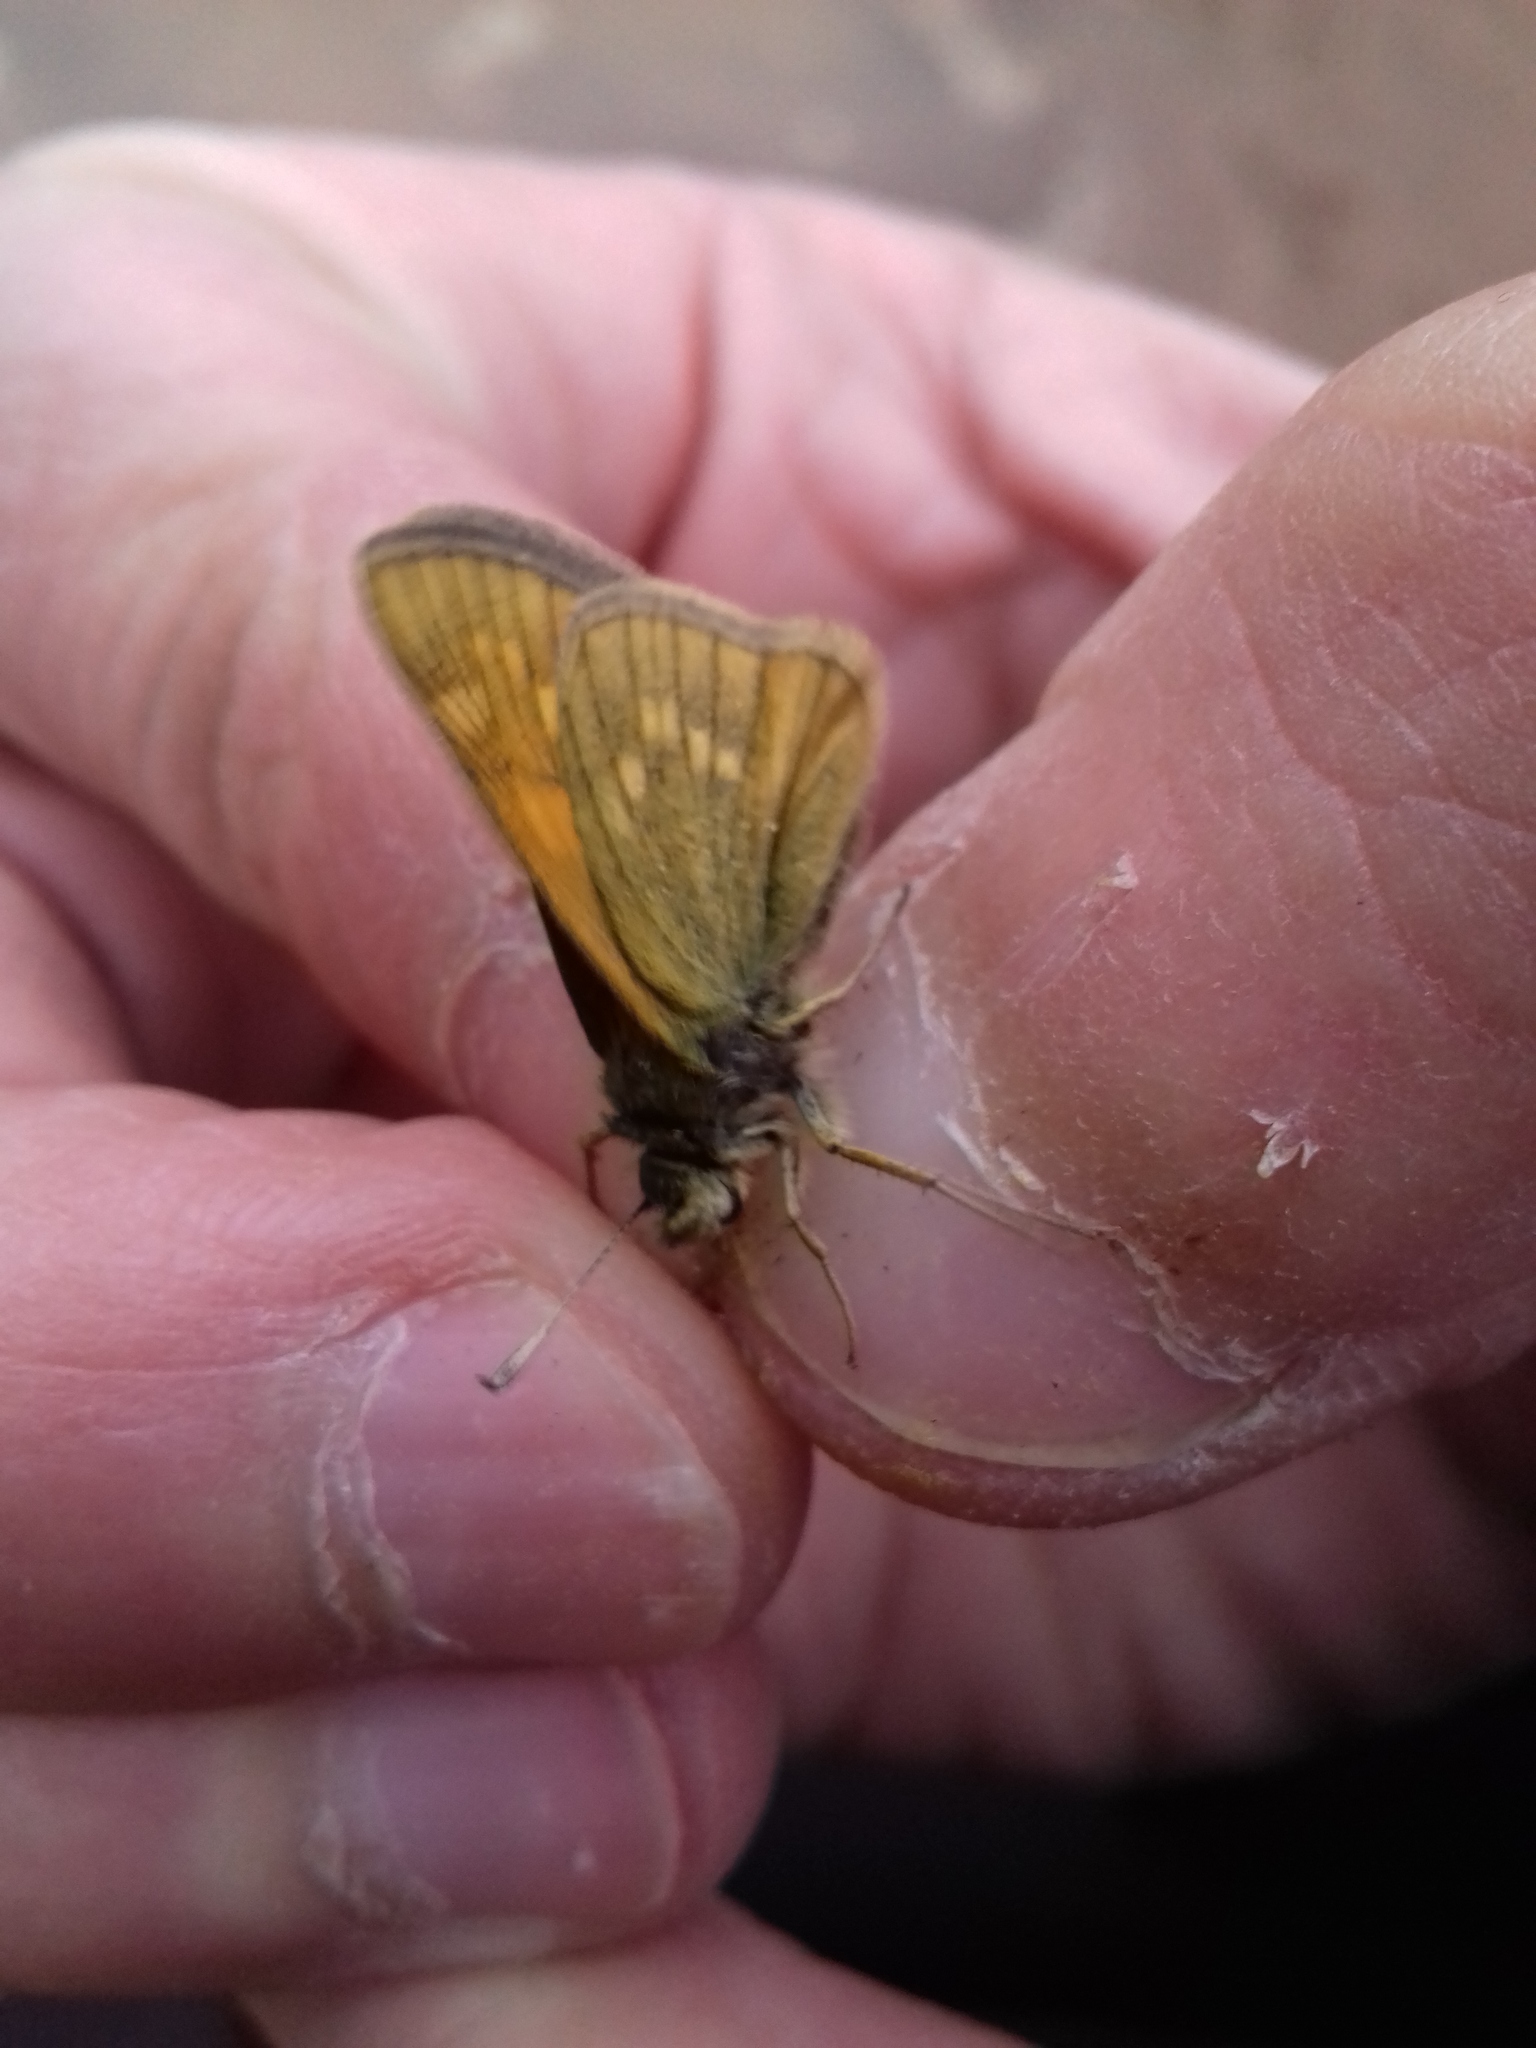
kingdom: Animalia
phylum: Arthropoda
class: Insecta
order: Lepidoptera
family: Hesperiidae
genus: Ochlodes
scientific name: Ochlodes venata
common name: Large skipper
